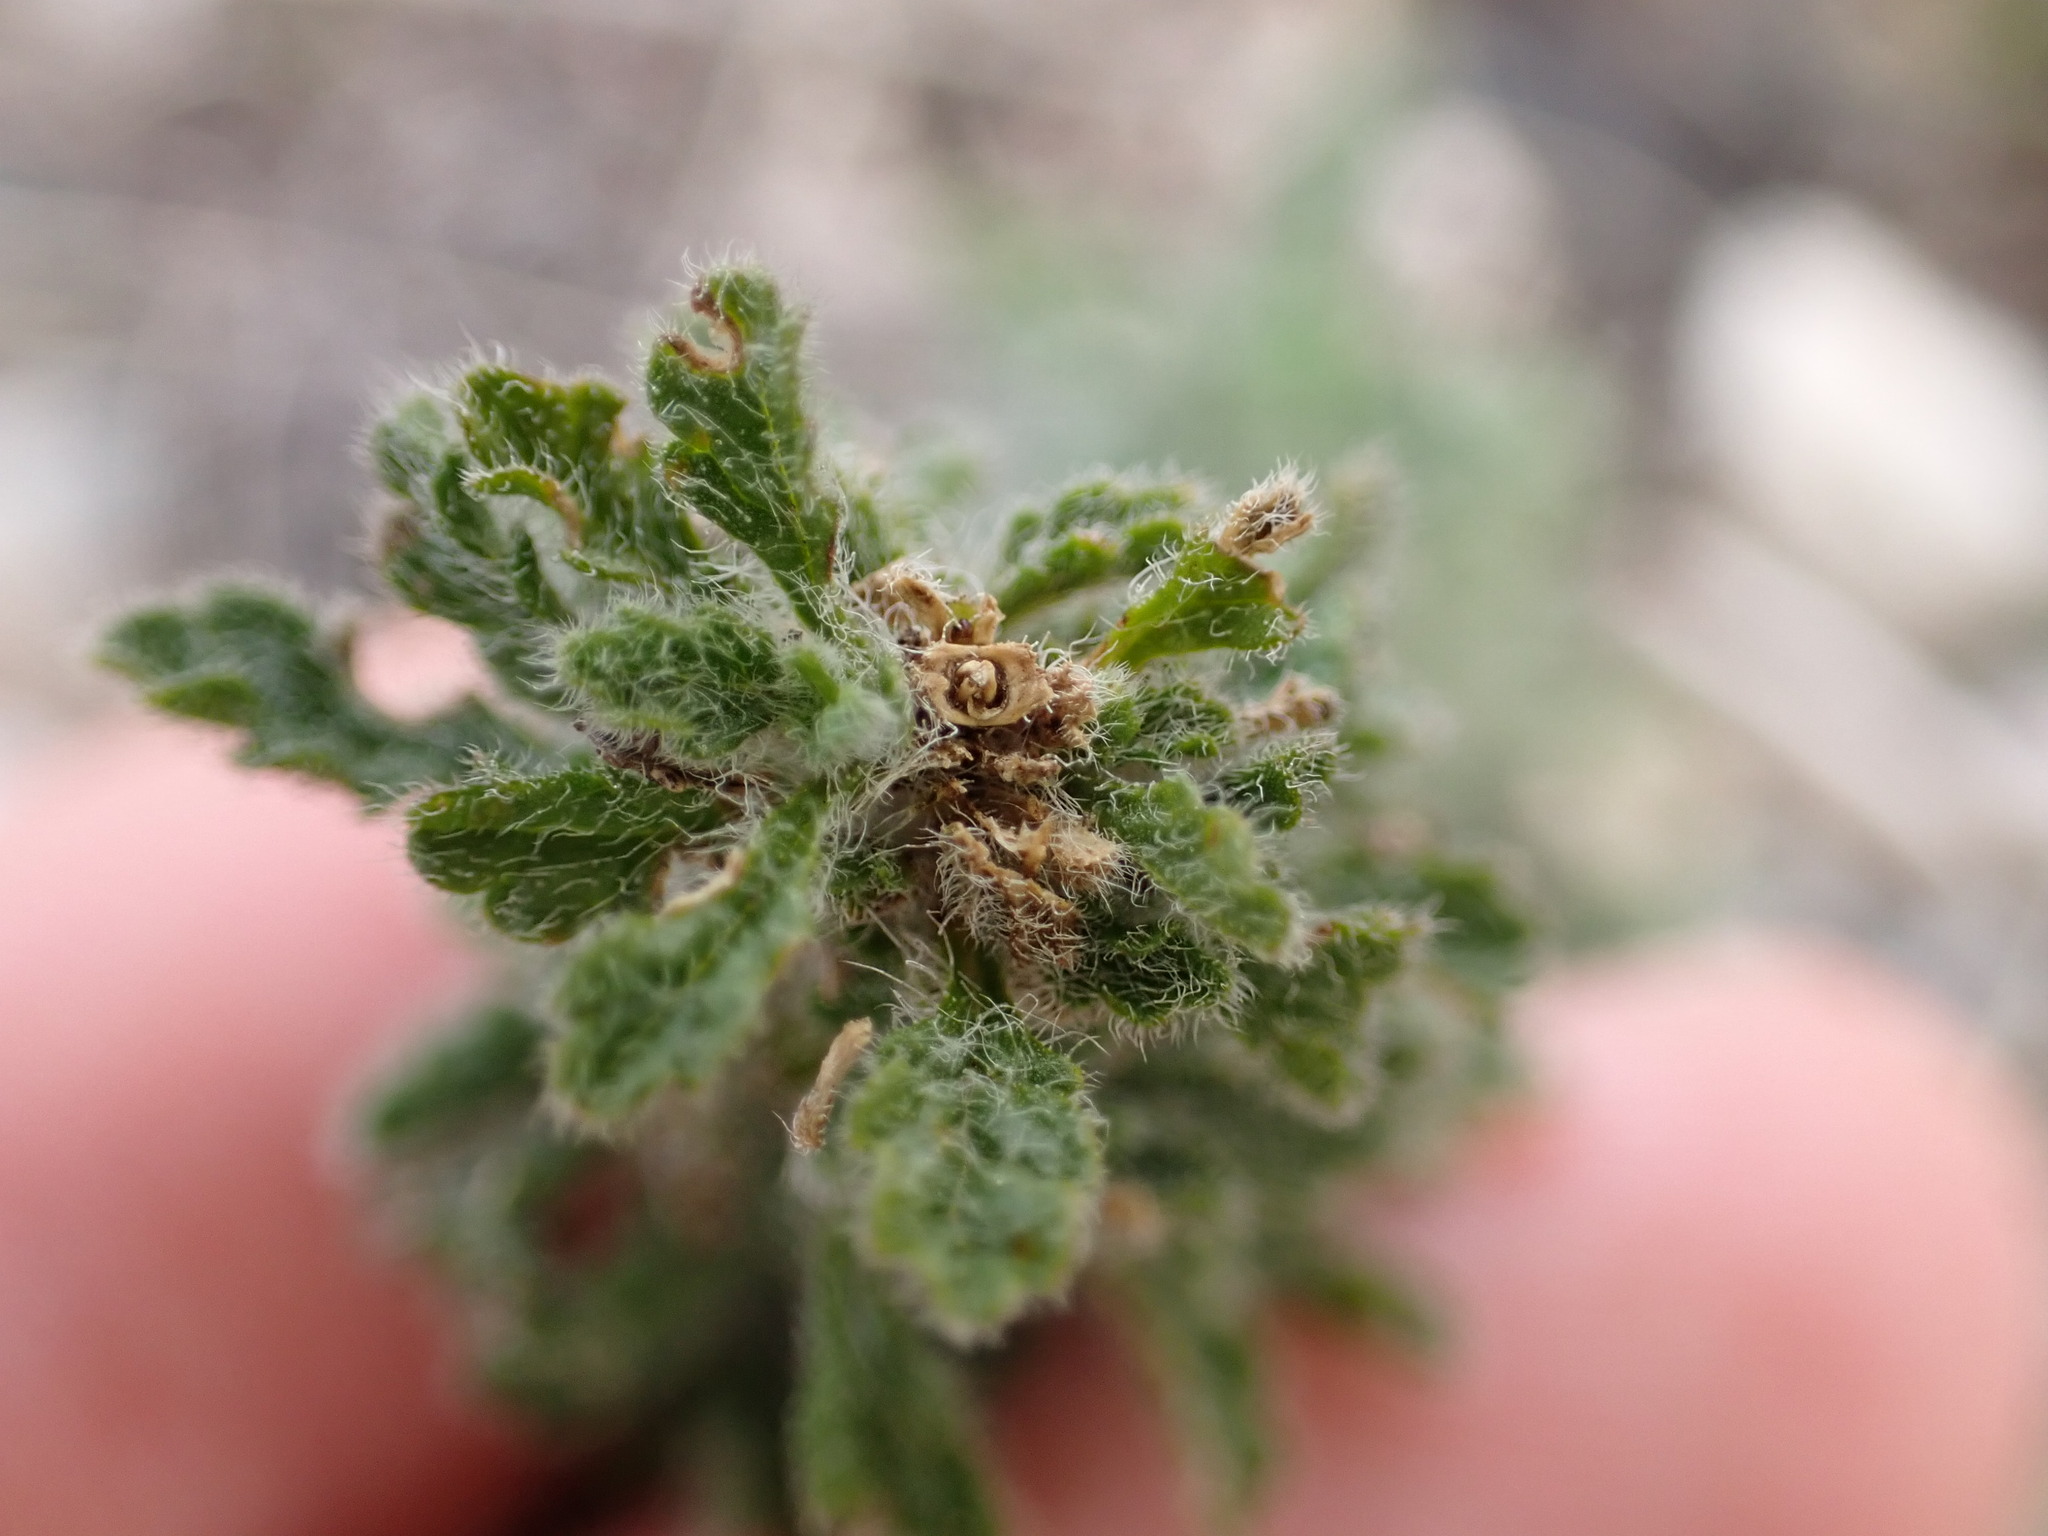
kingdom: Plantae
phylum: Tracheophyta
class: Magnoliopsida
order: Lamiales
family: Lamiaceae
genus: Sideritis
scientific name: Sideritis endressii
